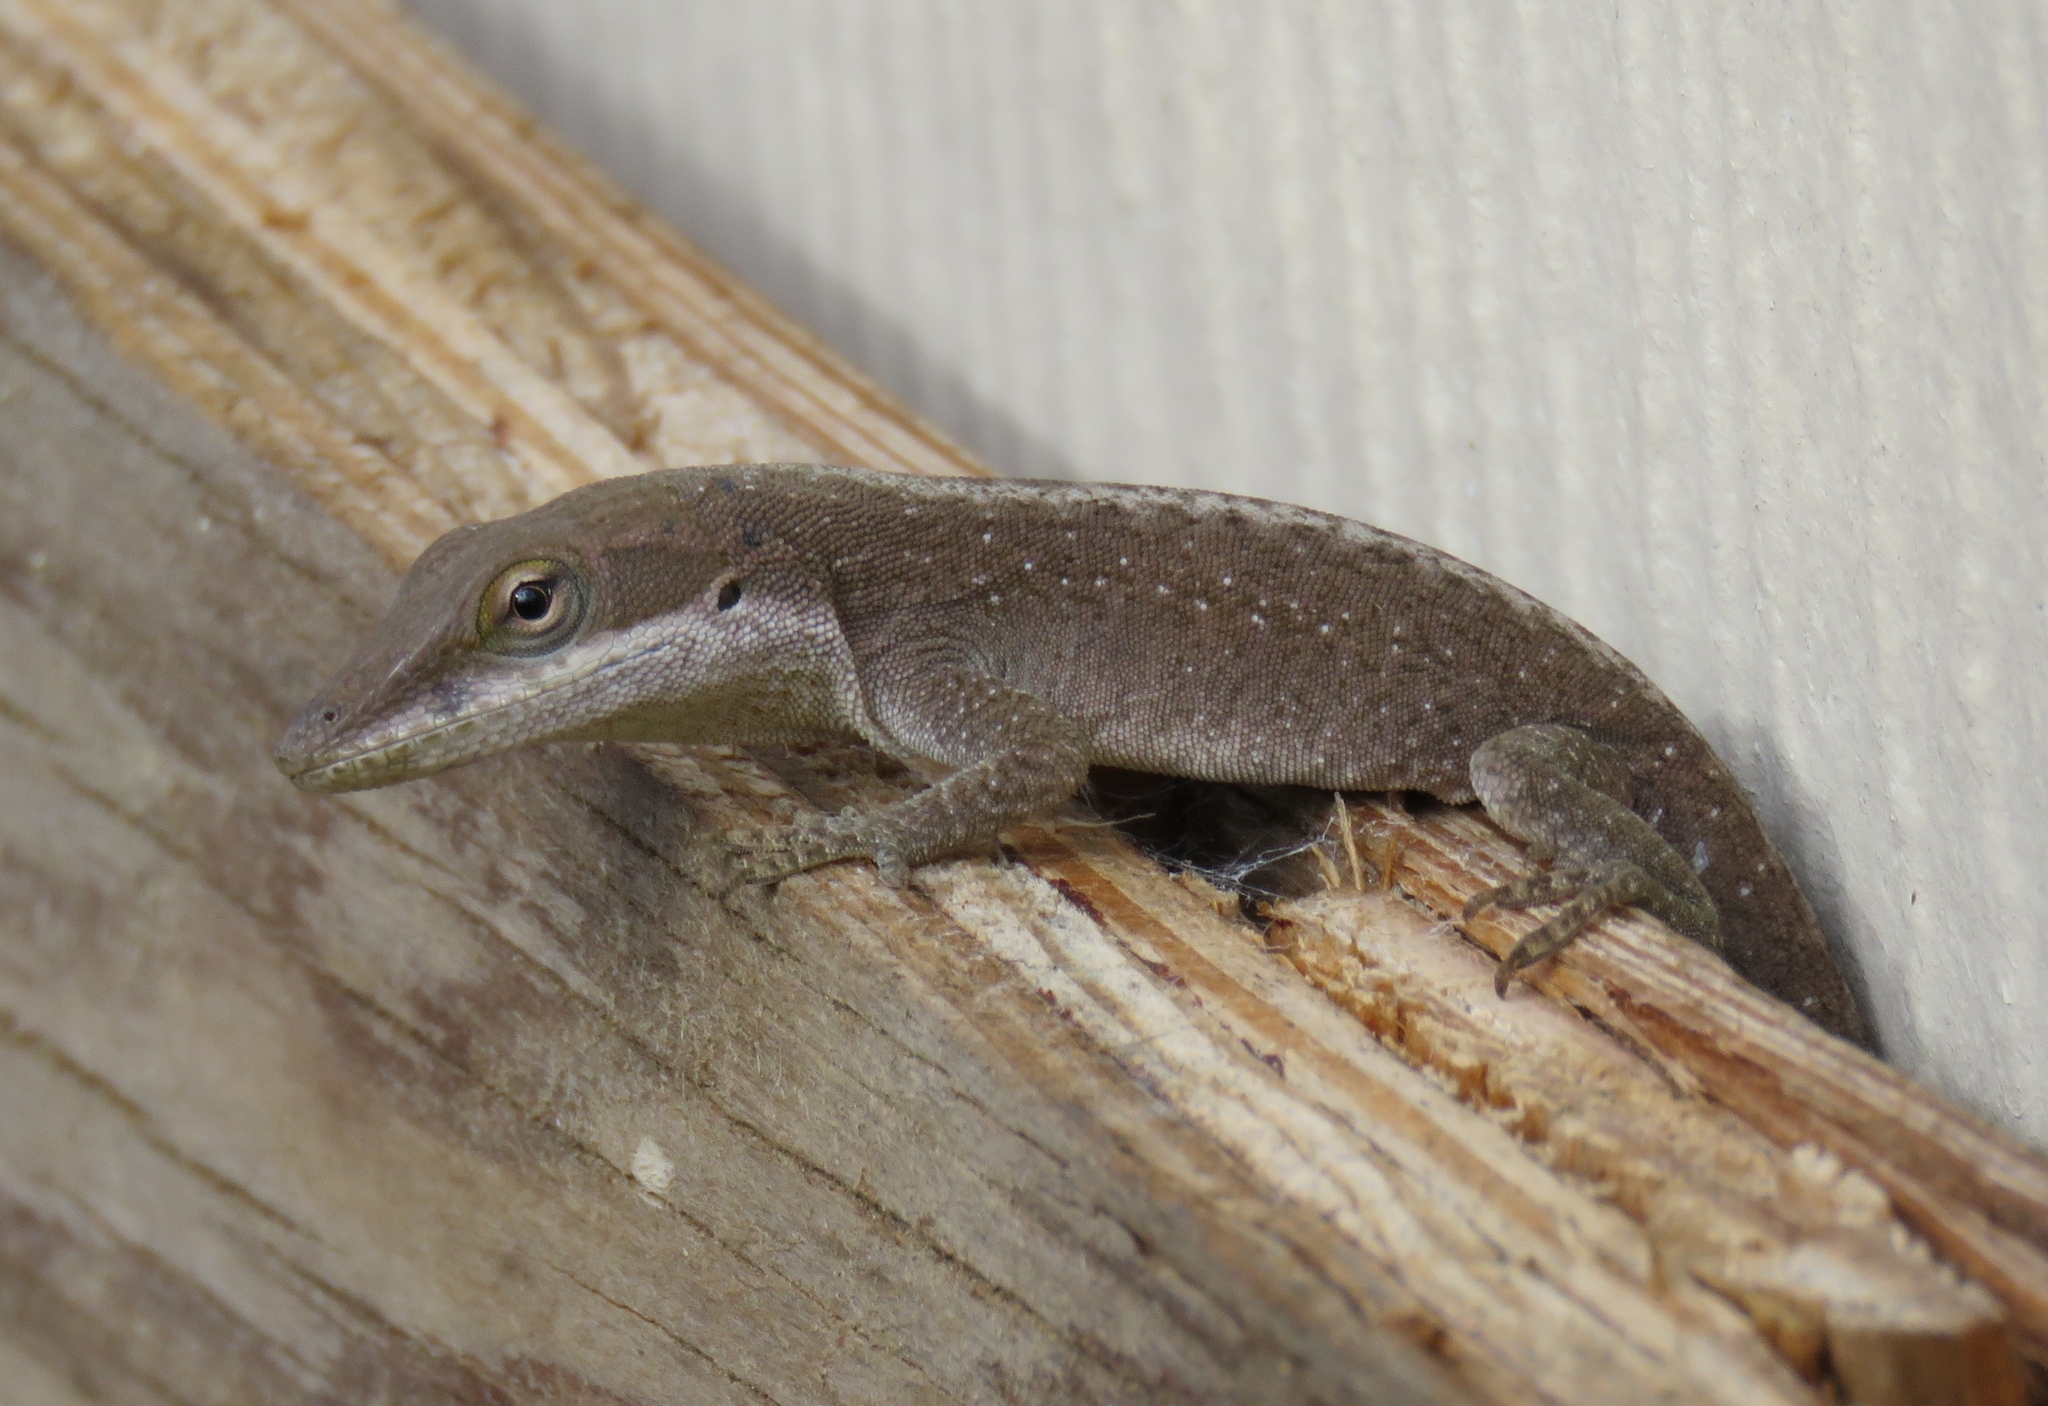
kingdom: Animalia
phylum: Chordata
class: Squamata
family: Dactyloidae
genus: Anolis
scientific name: Anolis carolinensis
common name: Green anole
